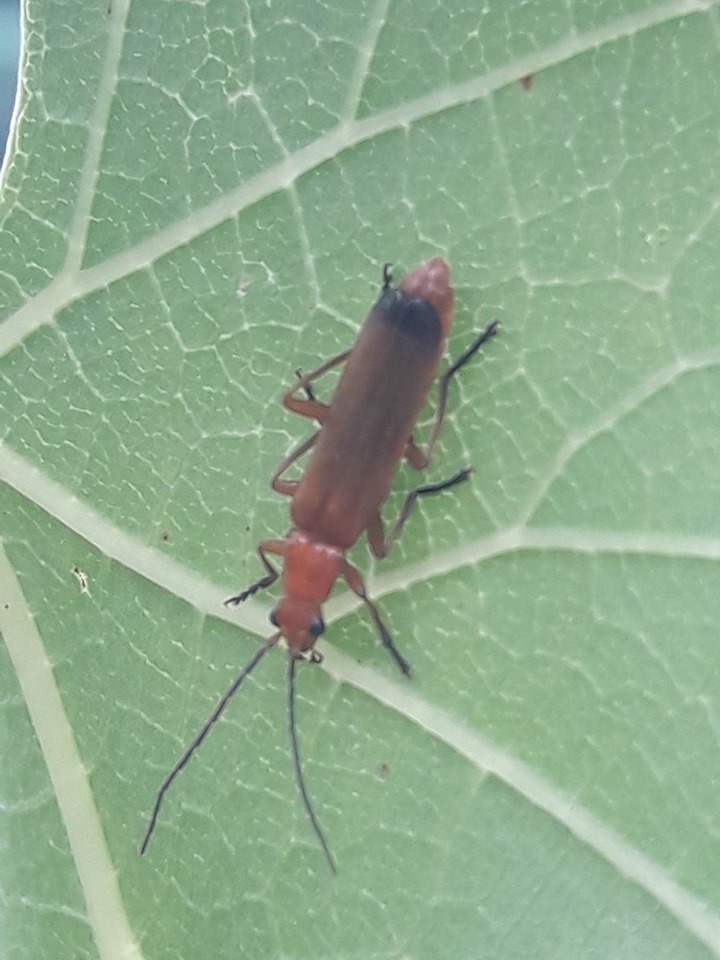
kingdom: Animalia
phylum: Arthropoda
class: Insecta
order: Coleoptera
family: Cantharidae
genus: Rhagonycha
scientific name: Rhagonycha fulva
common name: Common red soldier beetle
